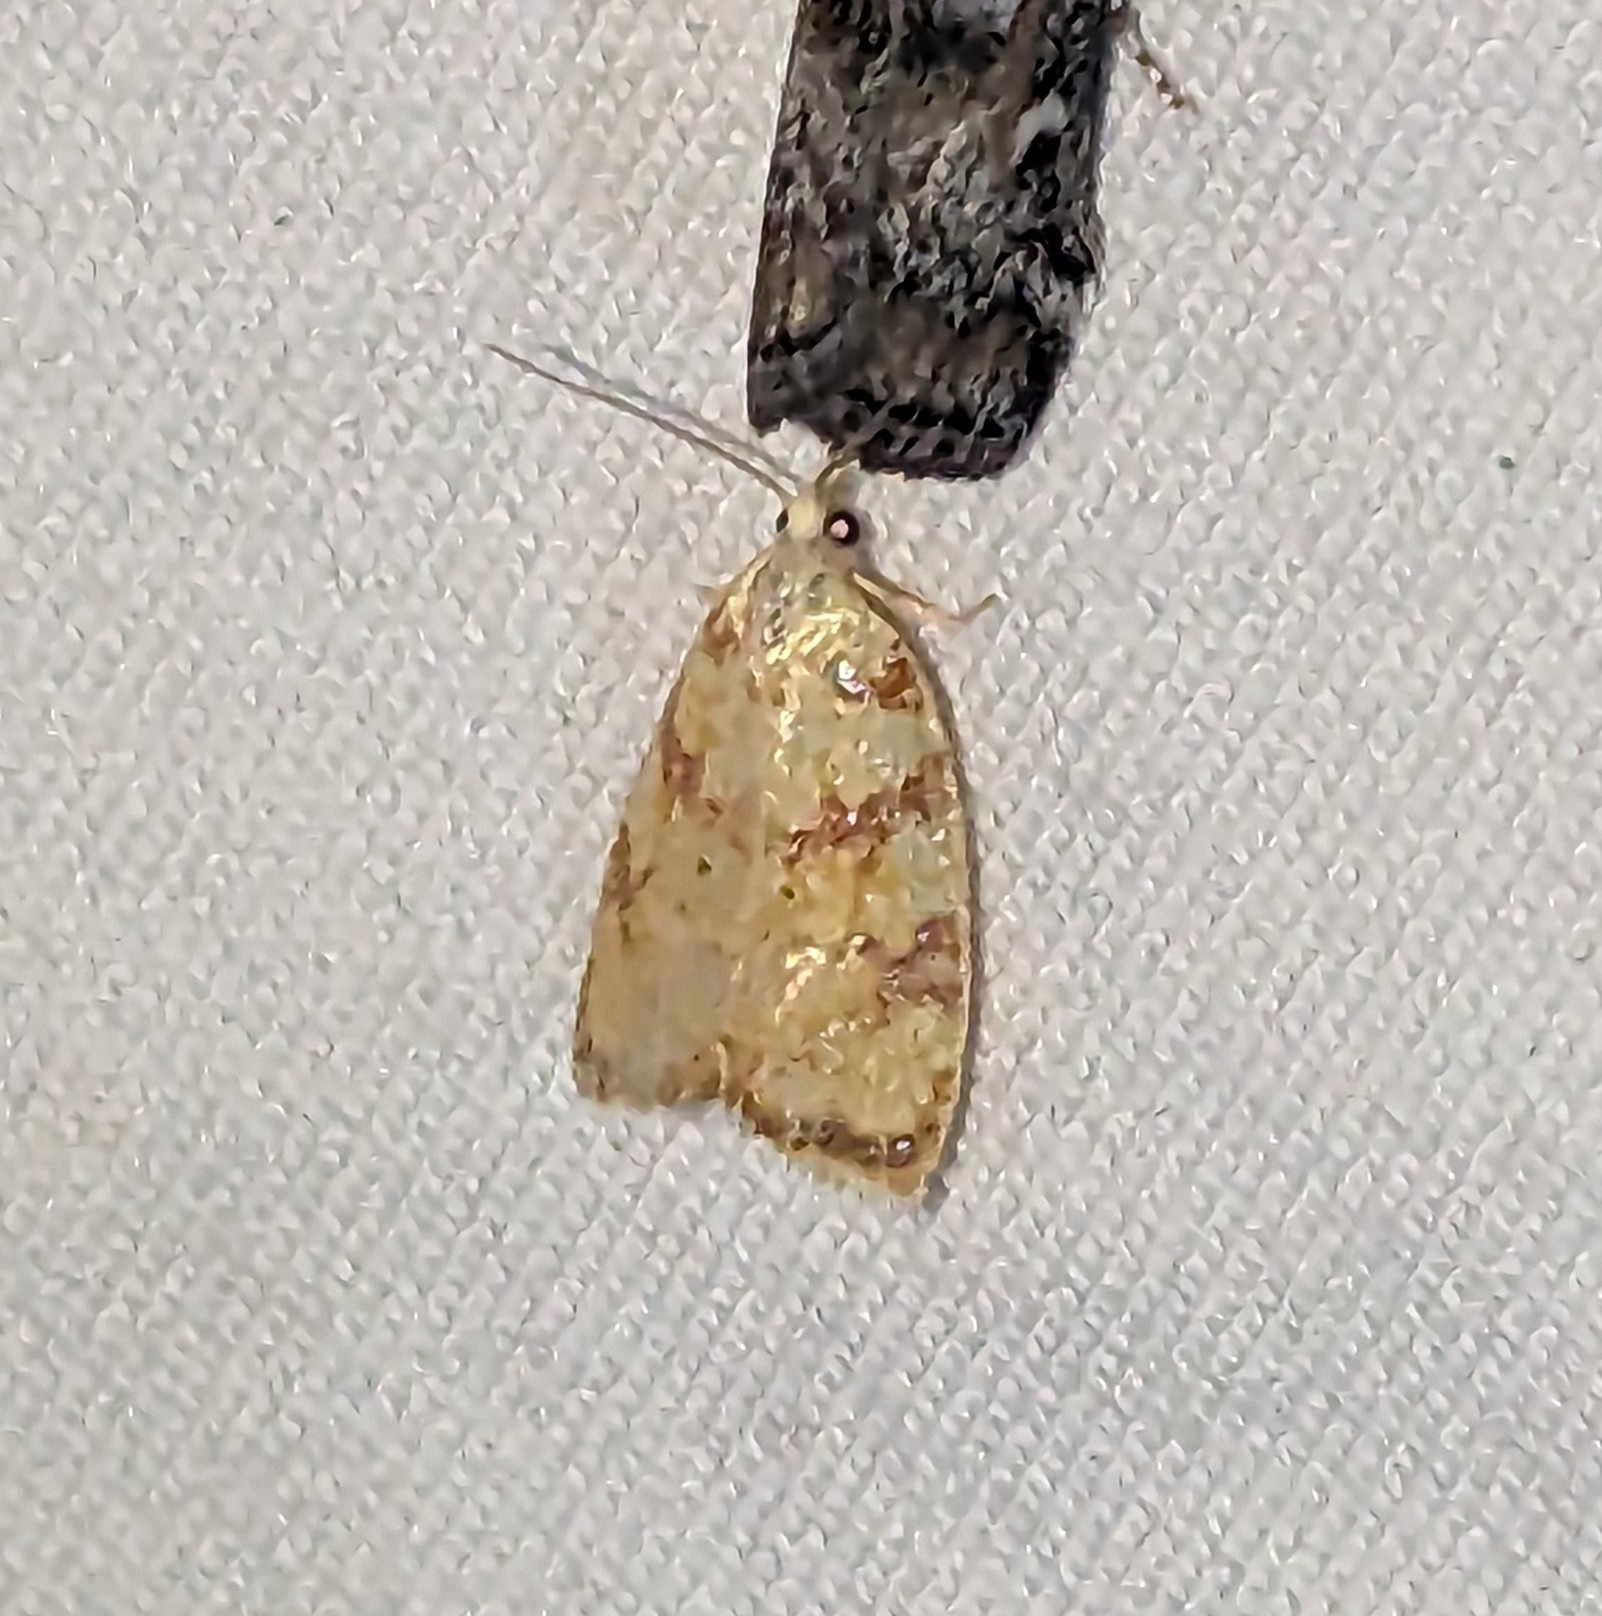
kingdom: Animalia
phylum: Arthropoda
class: Insecta
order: Lepidoptera
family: Tortricidae
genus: Acleris
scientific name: Acleris albicomana
